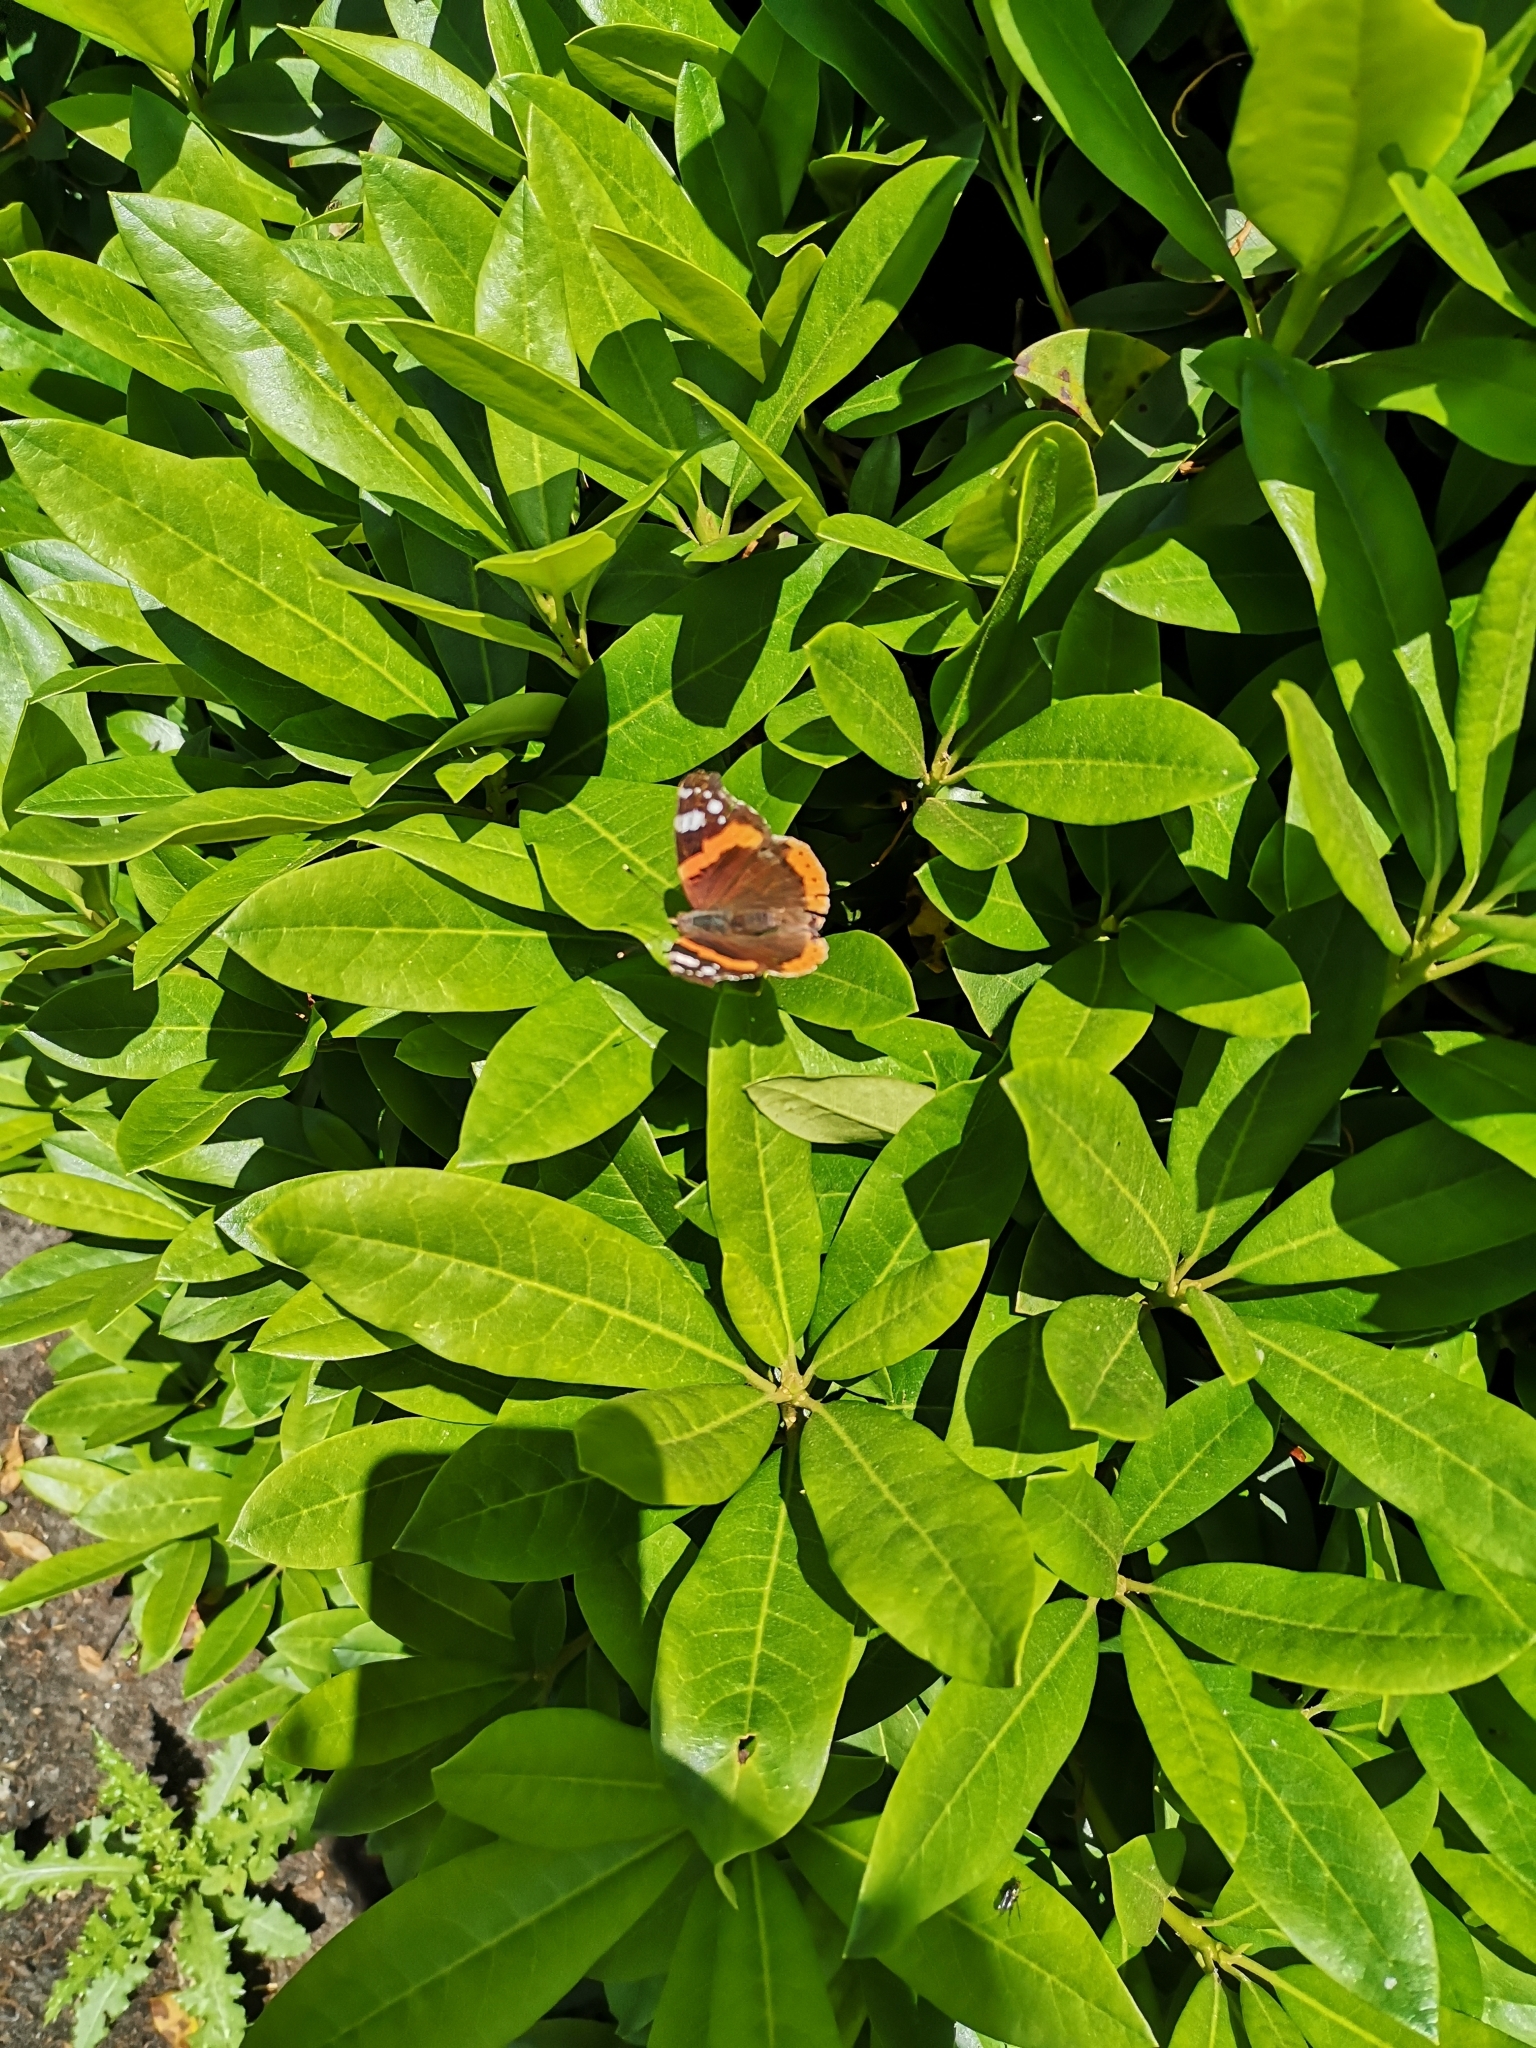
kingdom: Animalia
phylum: Arthropoda
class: Insecta
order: Lepidoptera
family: Nymphalidae
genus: Vanessa
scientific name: Vanessa atalanta
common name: Red admiral
